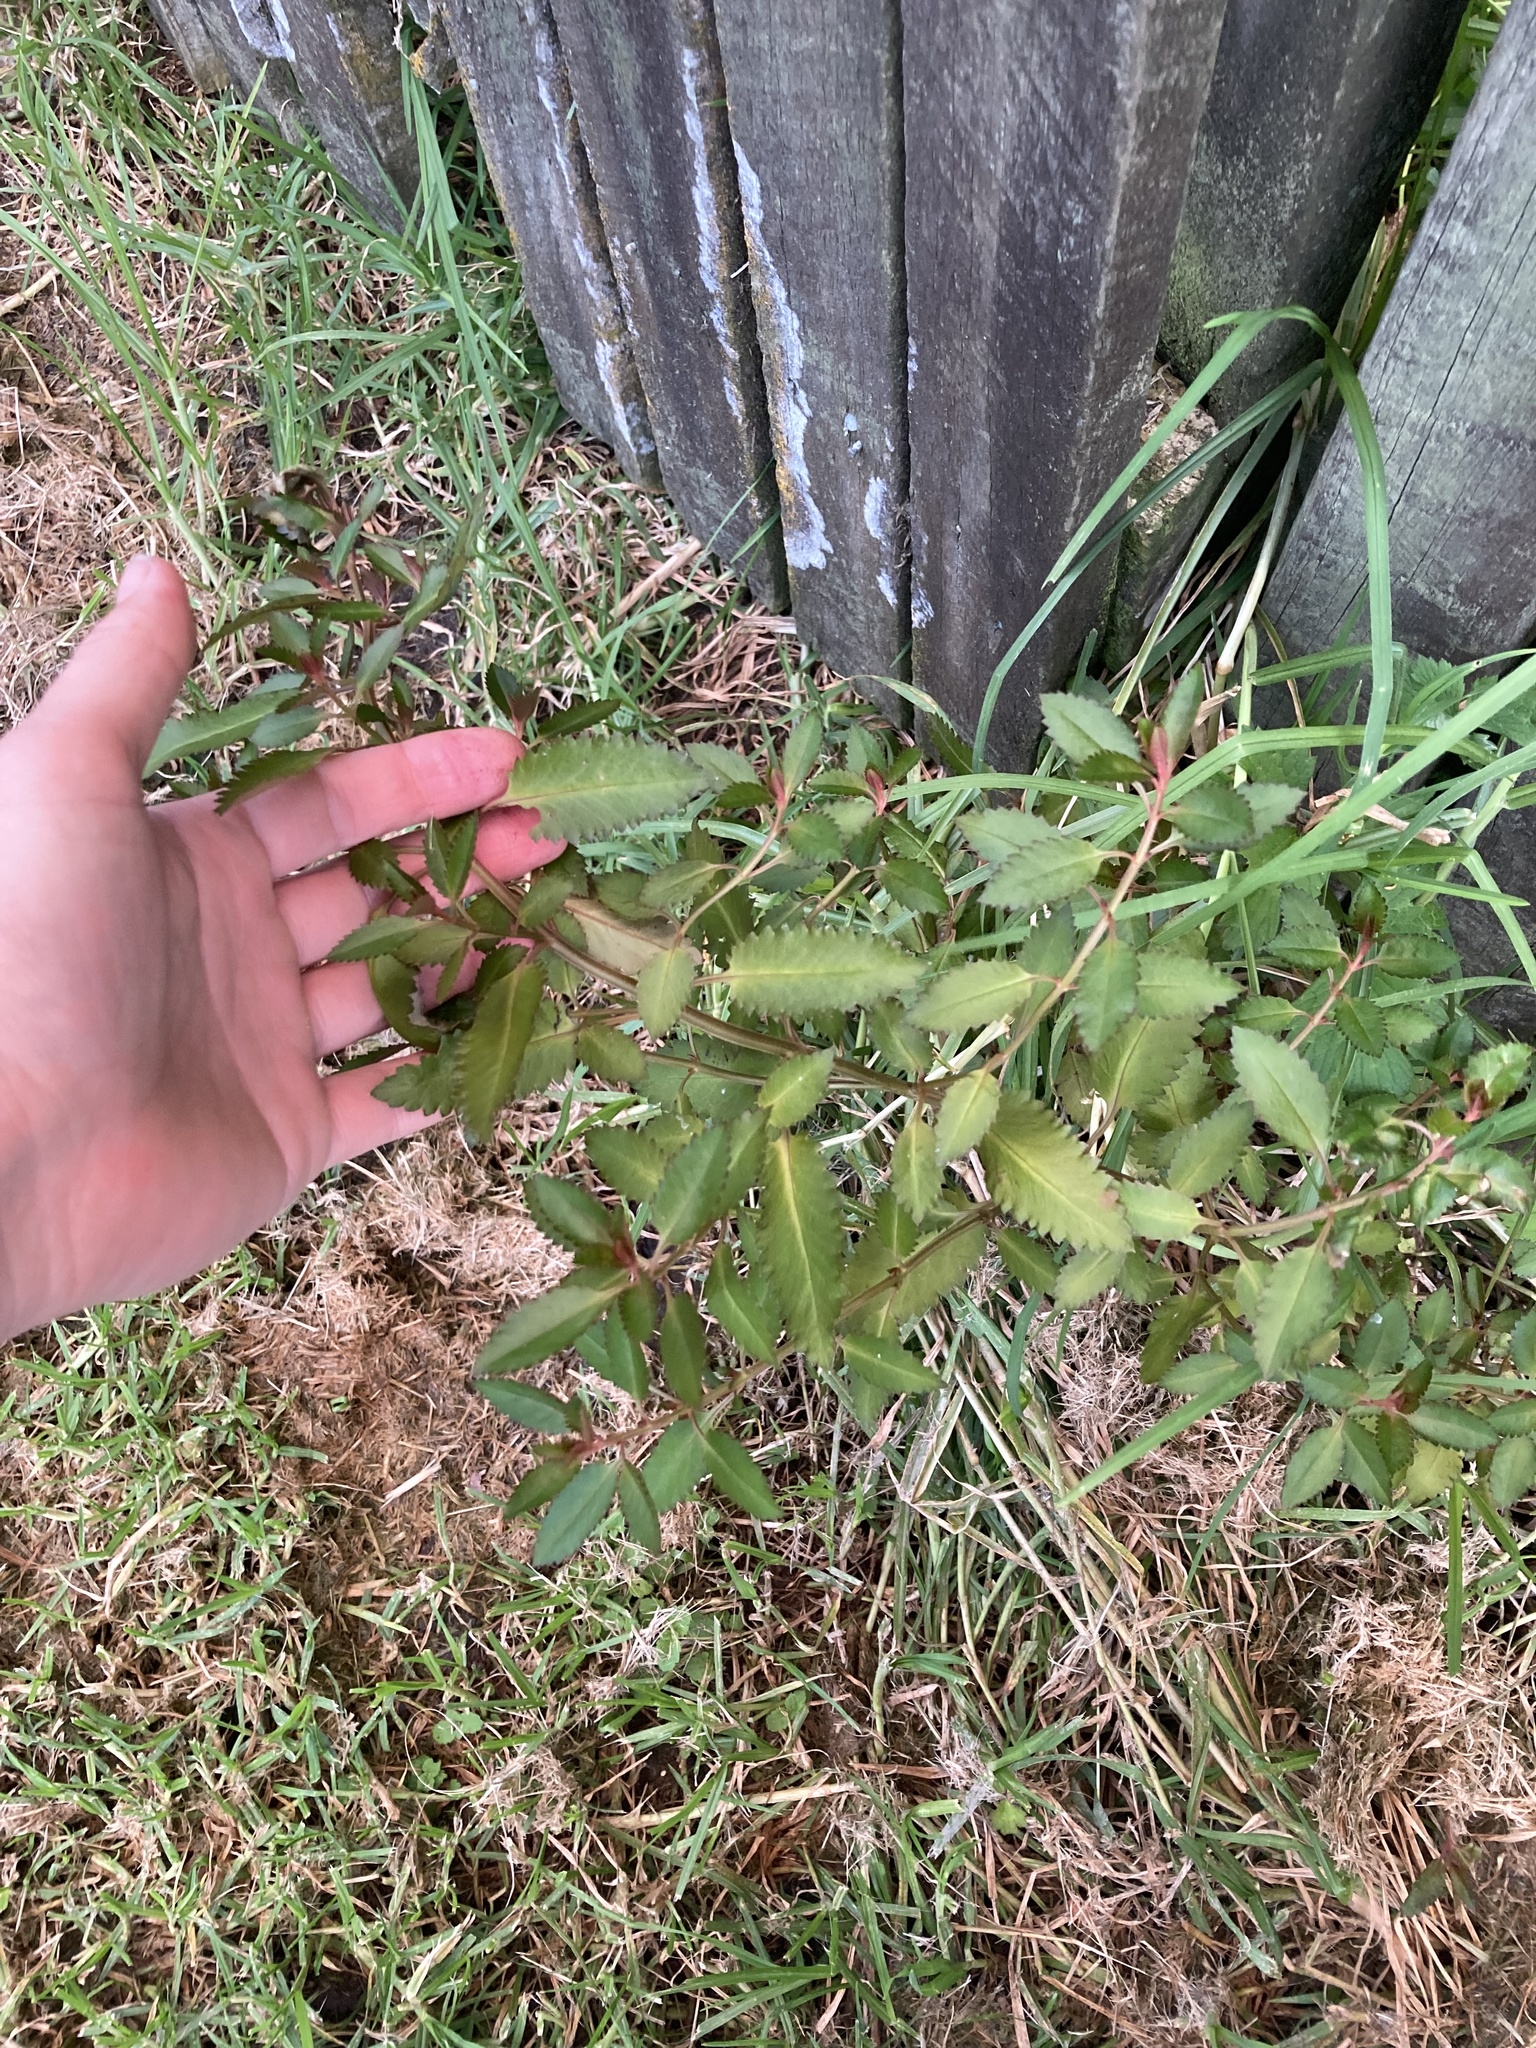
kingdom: Plantae
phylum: Tracheophyta
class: Magnoliopsida
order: Saxifragales
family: Haloragaceae
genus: Haloragis
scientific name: Haloragis erecta
